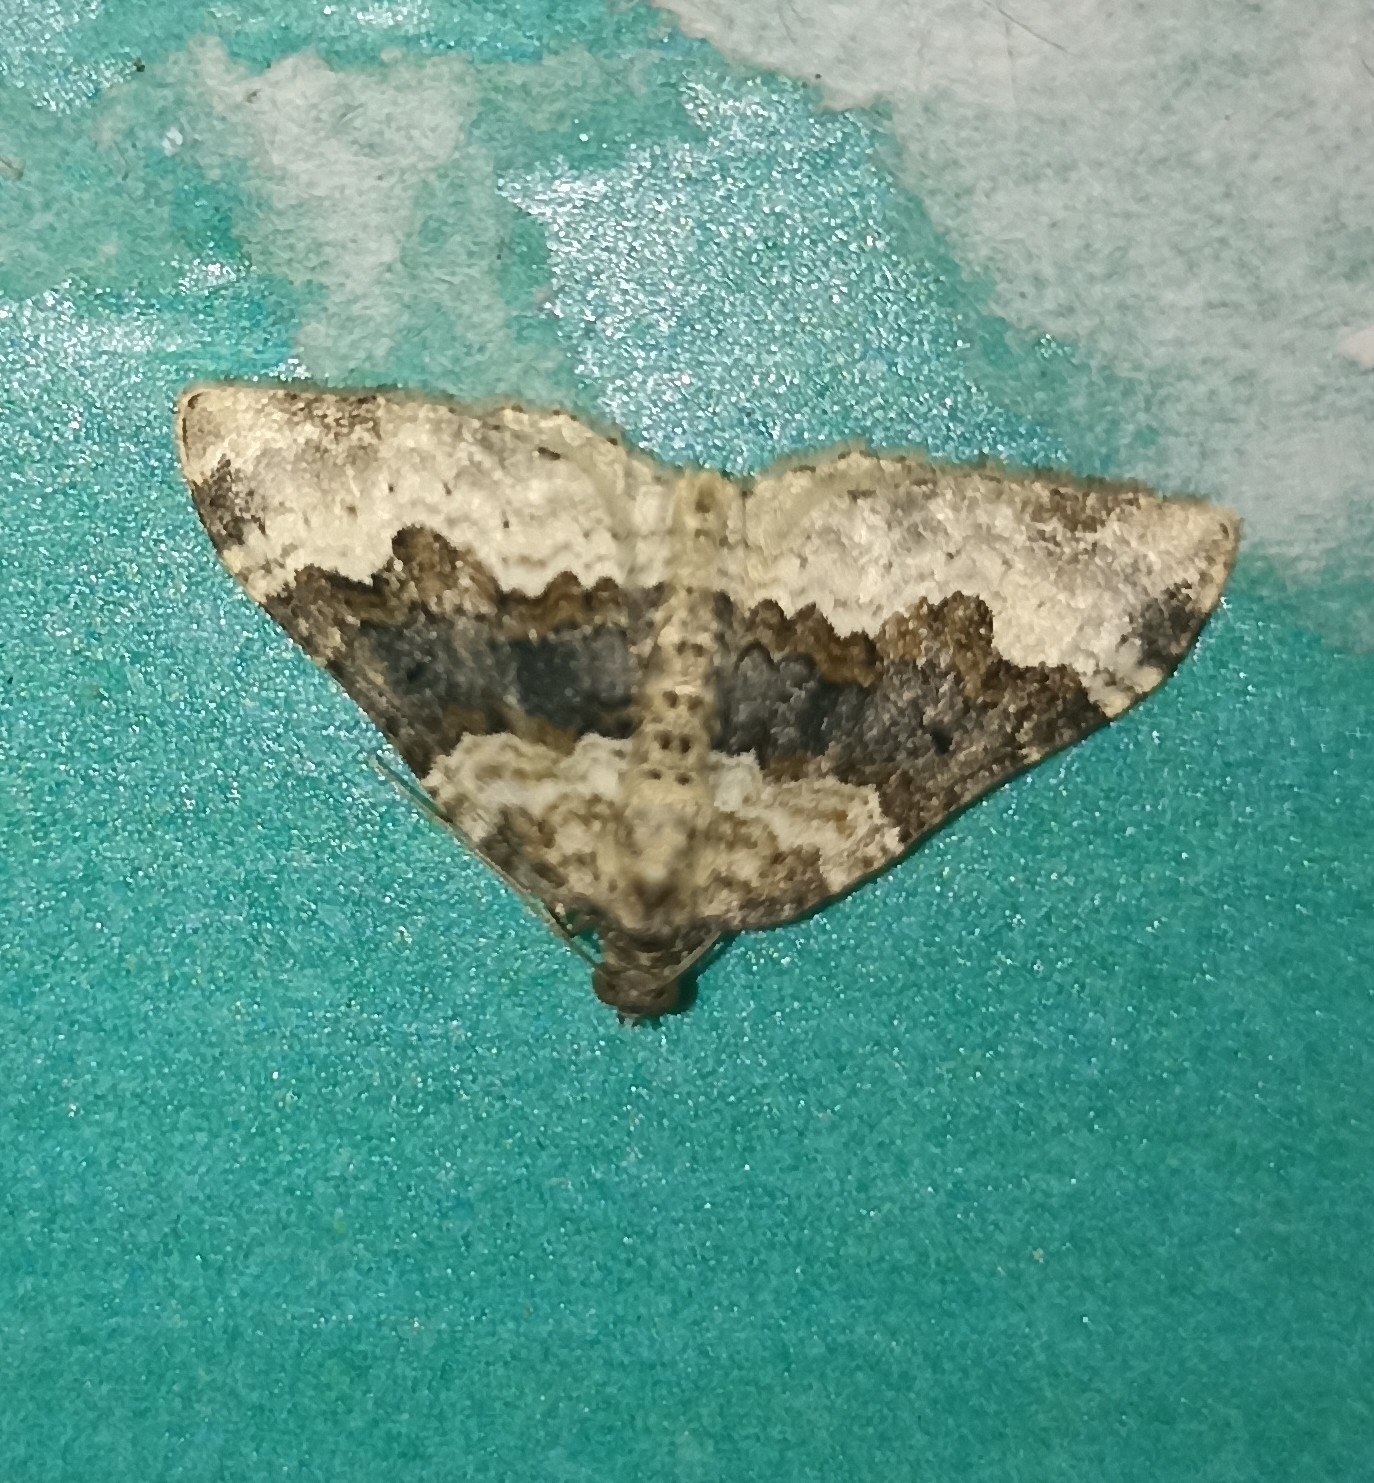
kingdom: Animalia
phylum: Arthropoda
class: Insecta
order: Lepidoptera
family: Geometridae
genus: Epirrhoe
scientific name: Epirrhoe galiata
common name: Galium carpet
